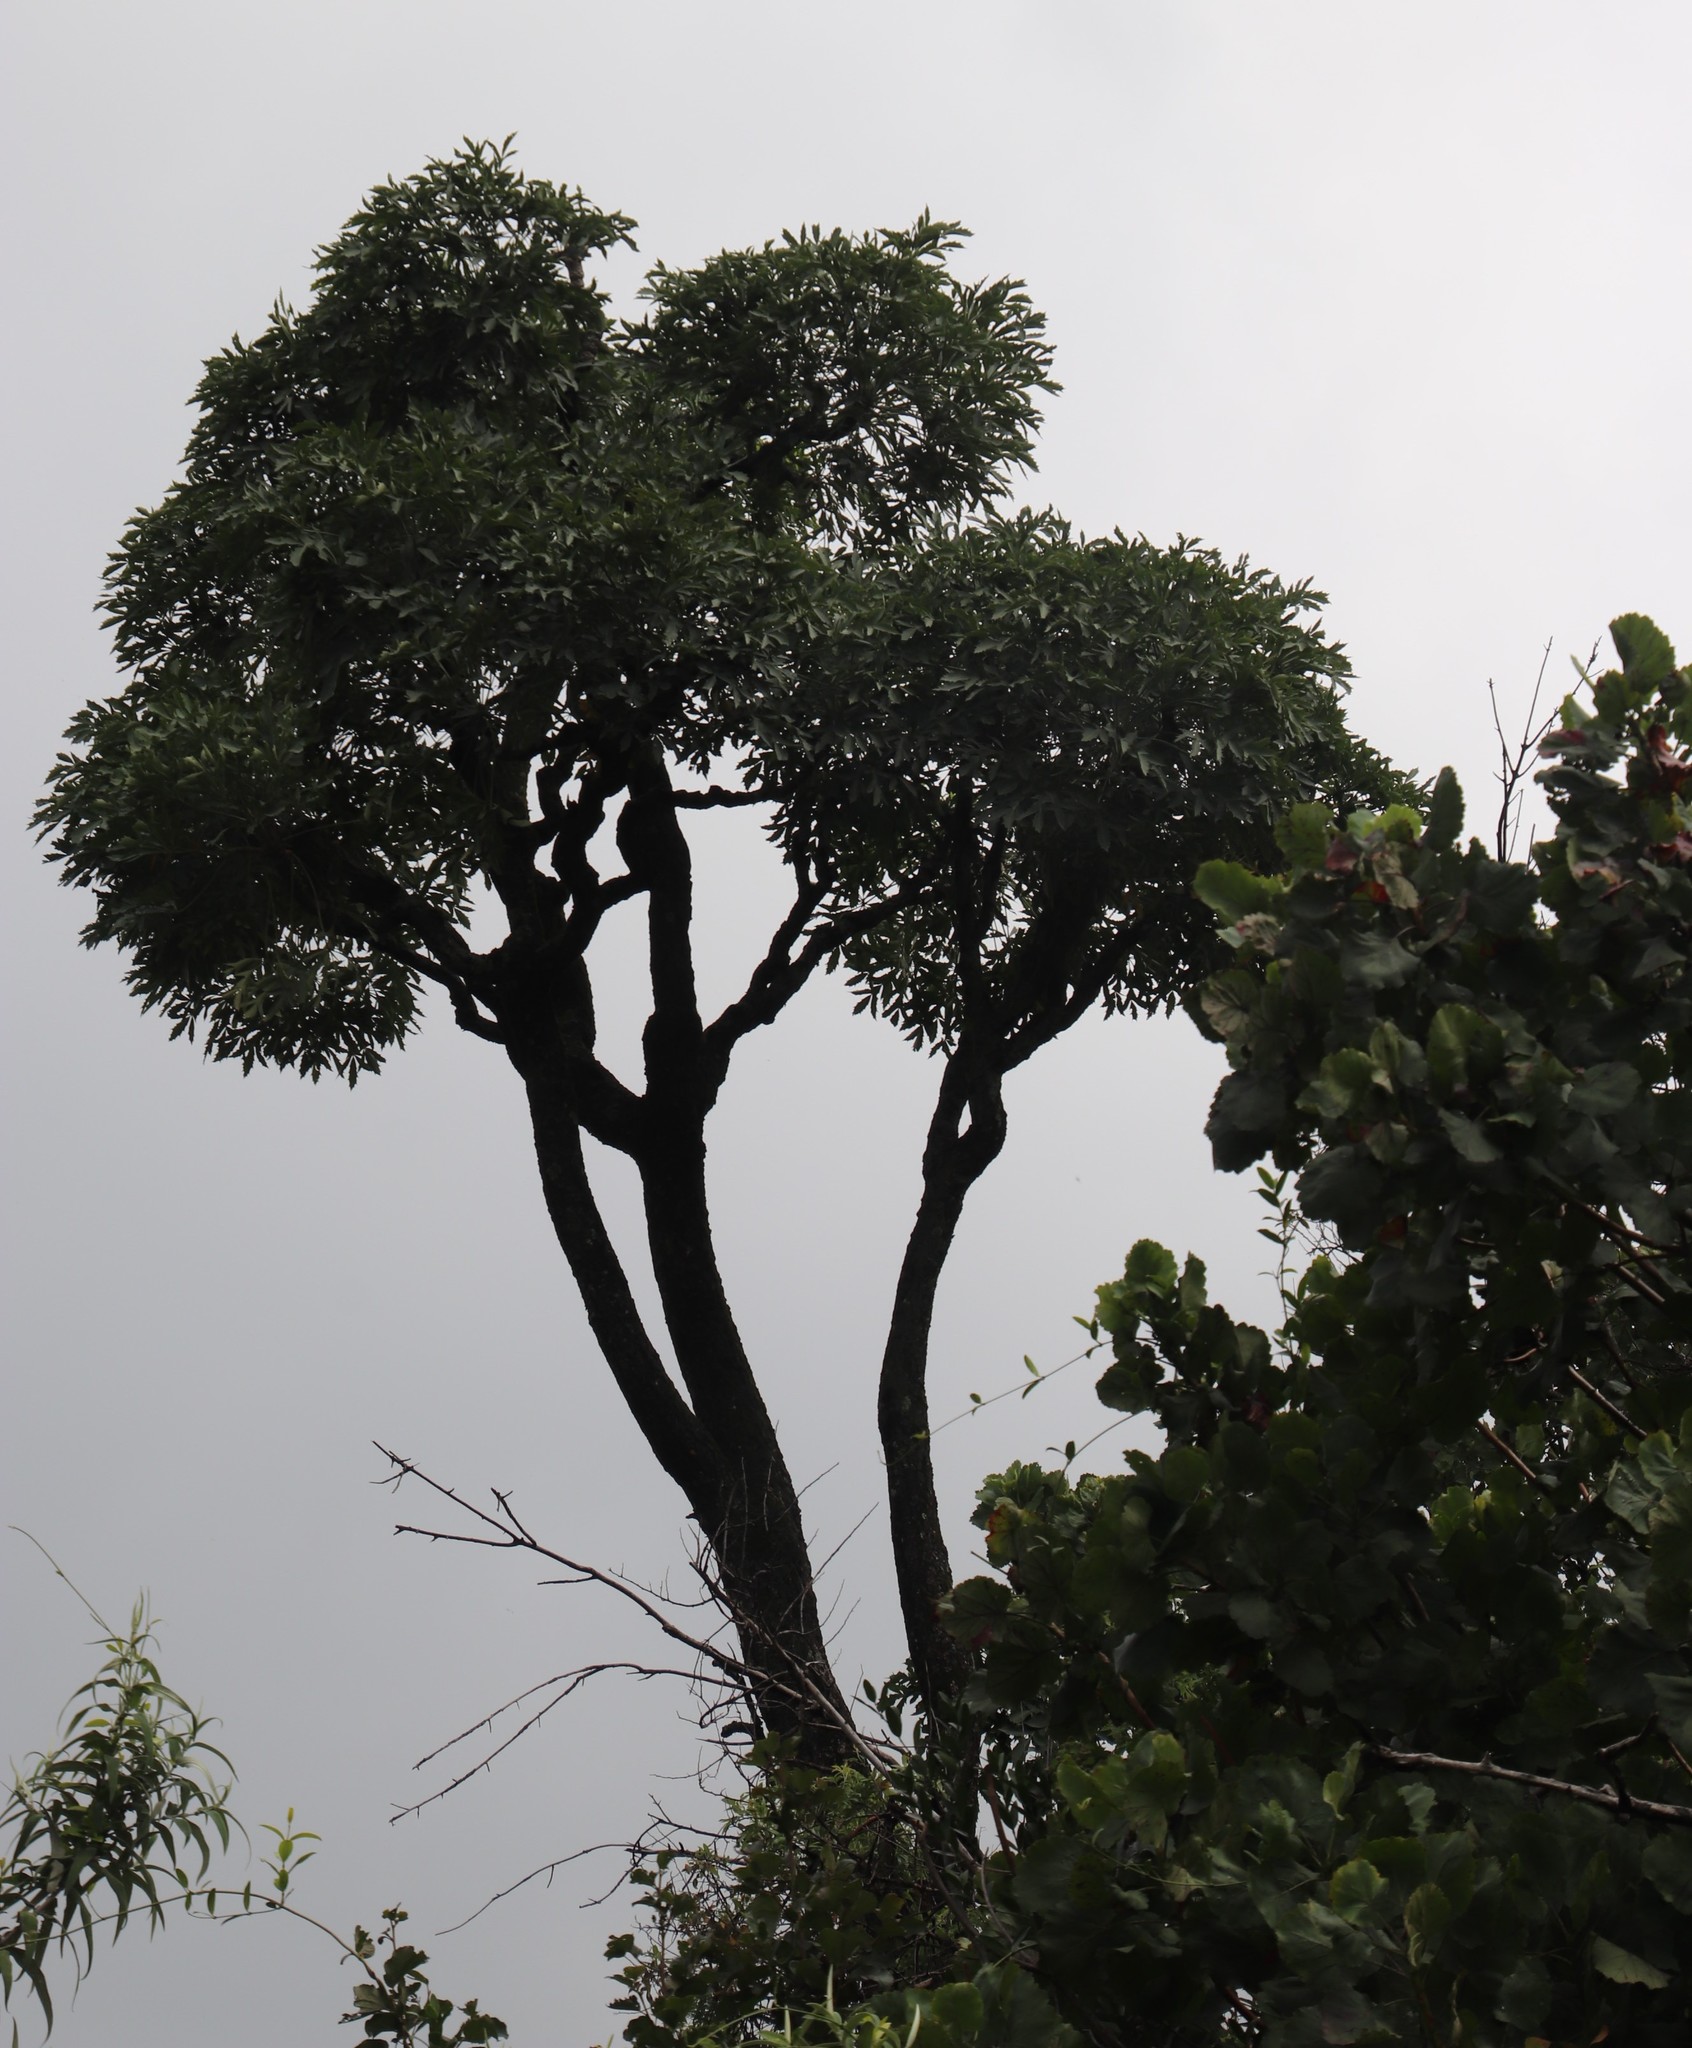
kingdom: Plantae
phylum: Tracheophyta
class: Magnoliopsida
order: Apiales
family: Araliaceae
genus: Cussonia
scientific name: Cussonia spicata
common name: Common cabbagetree
